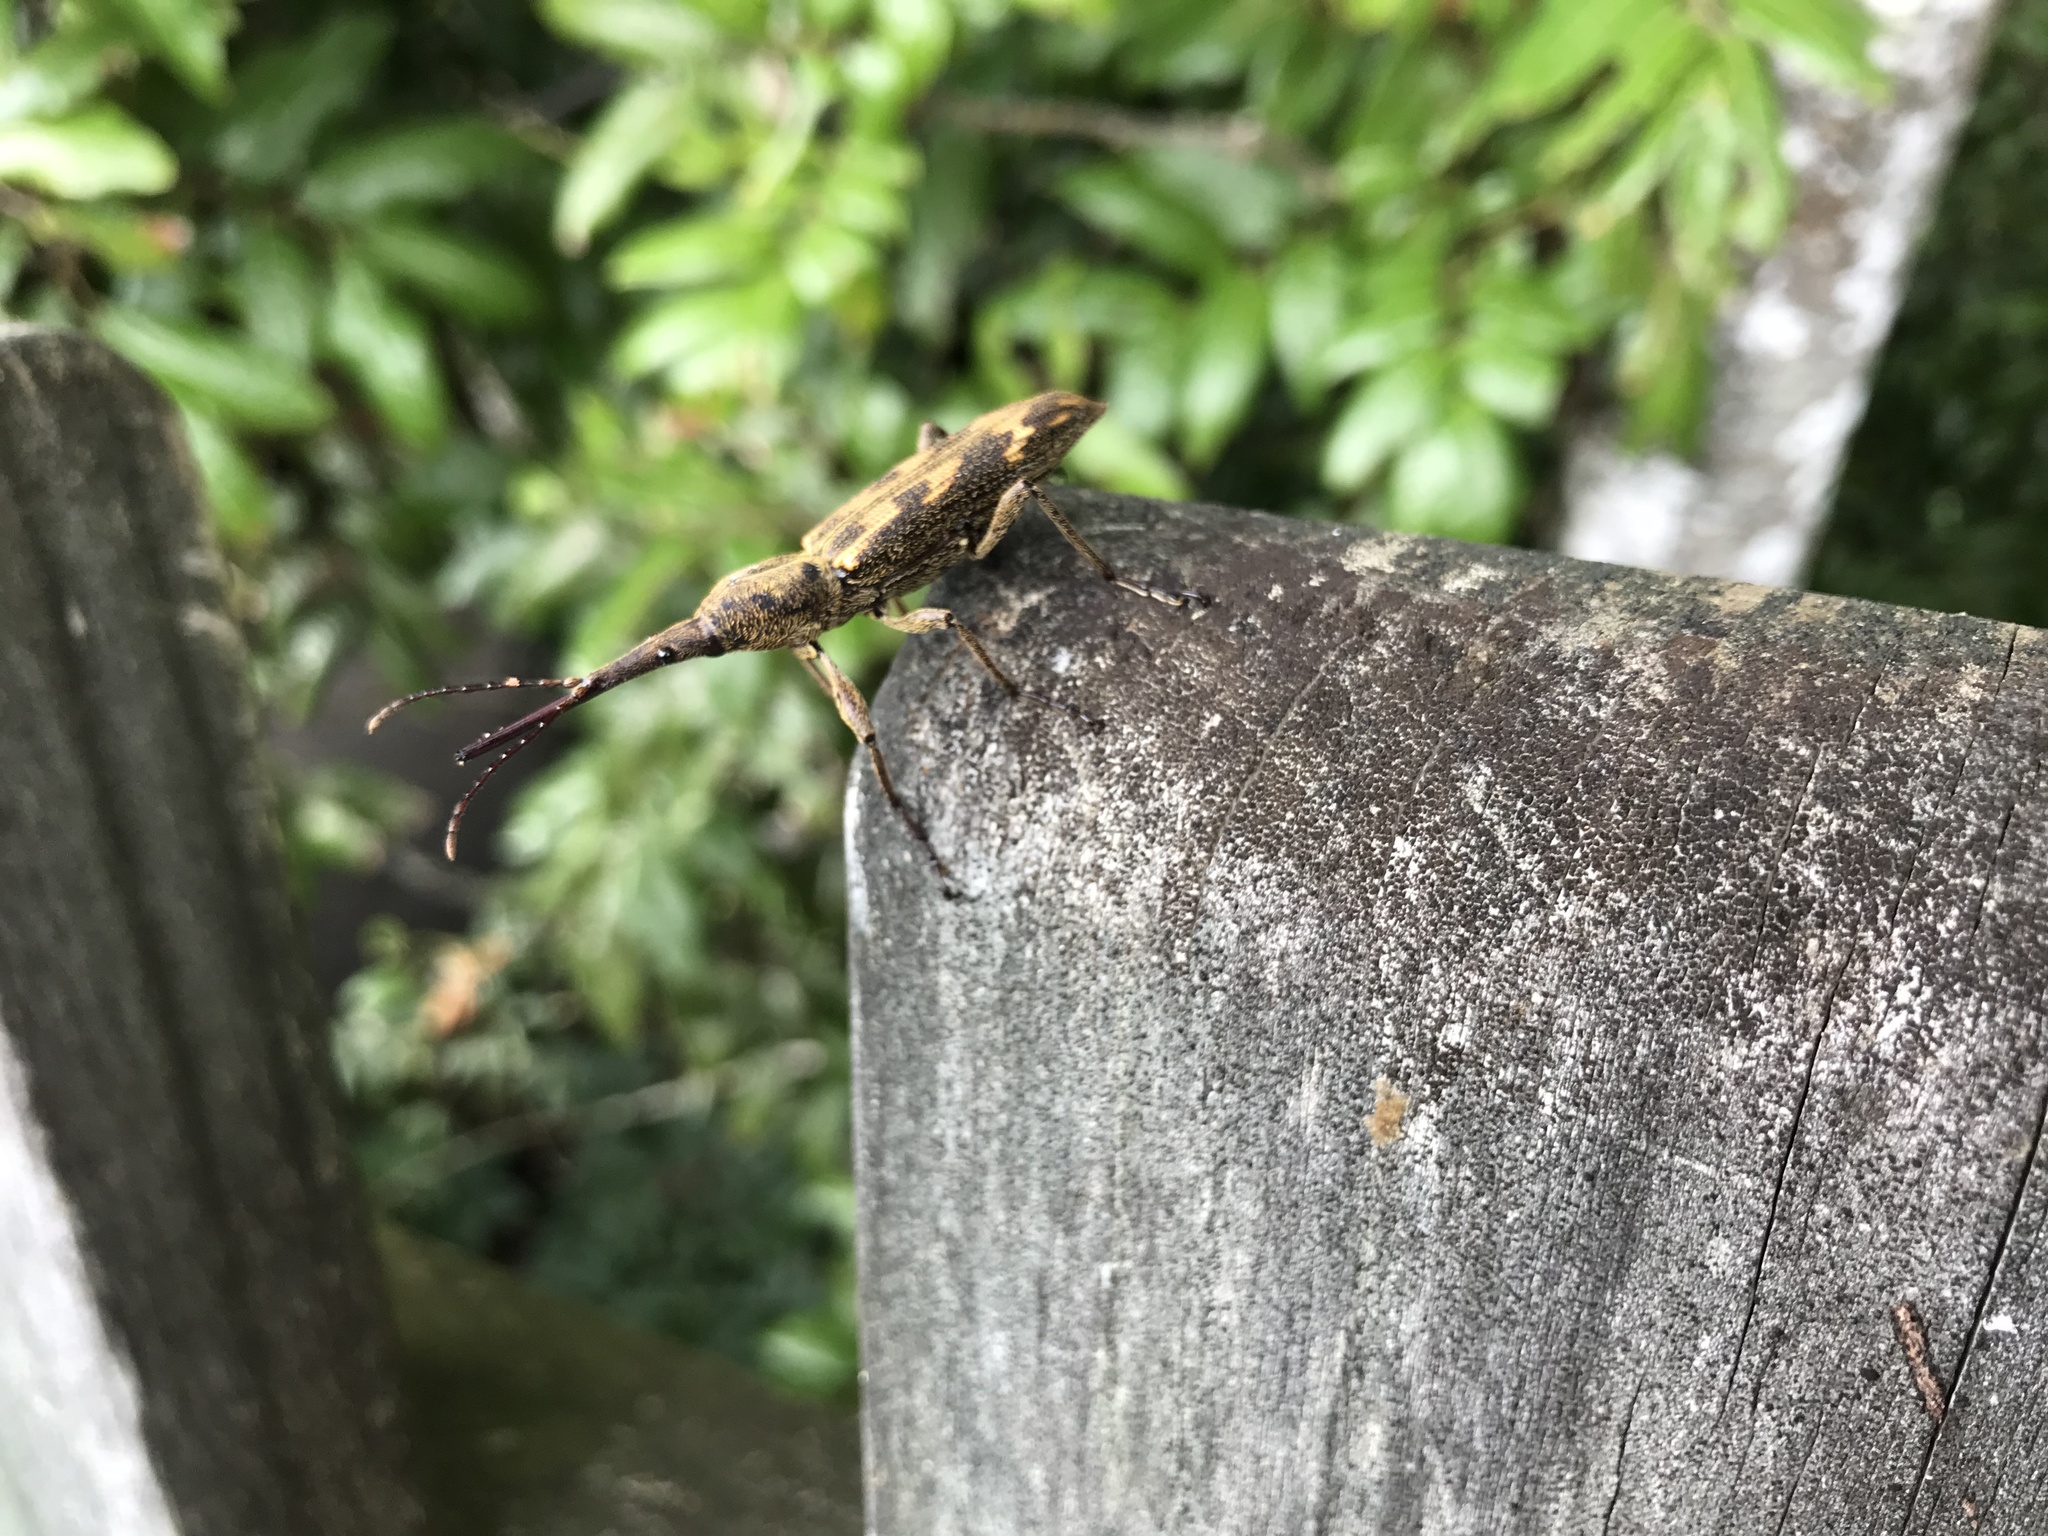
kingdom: Animalia
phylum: Arthropoda
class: Insecta
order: Coleoptera
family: Brentidae
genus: Lasiorhynchus
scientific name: Lasiorhynchus barbicornis
